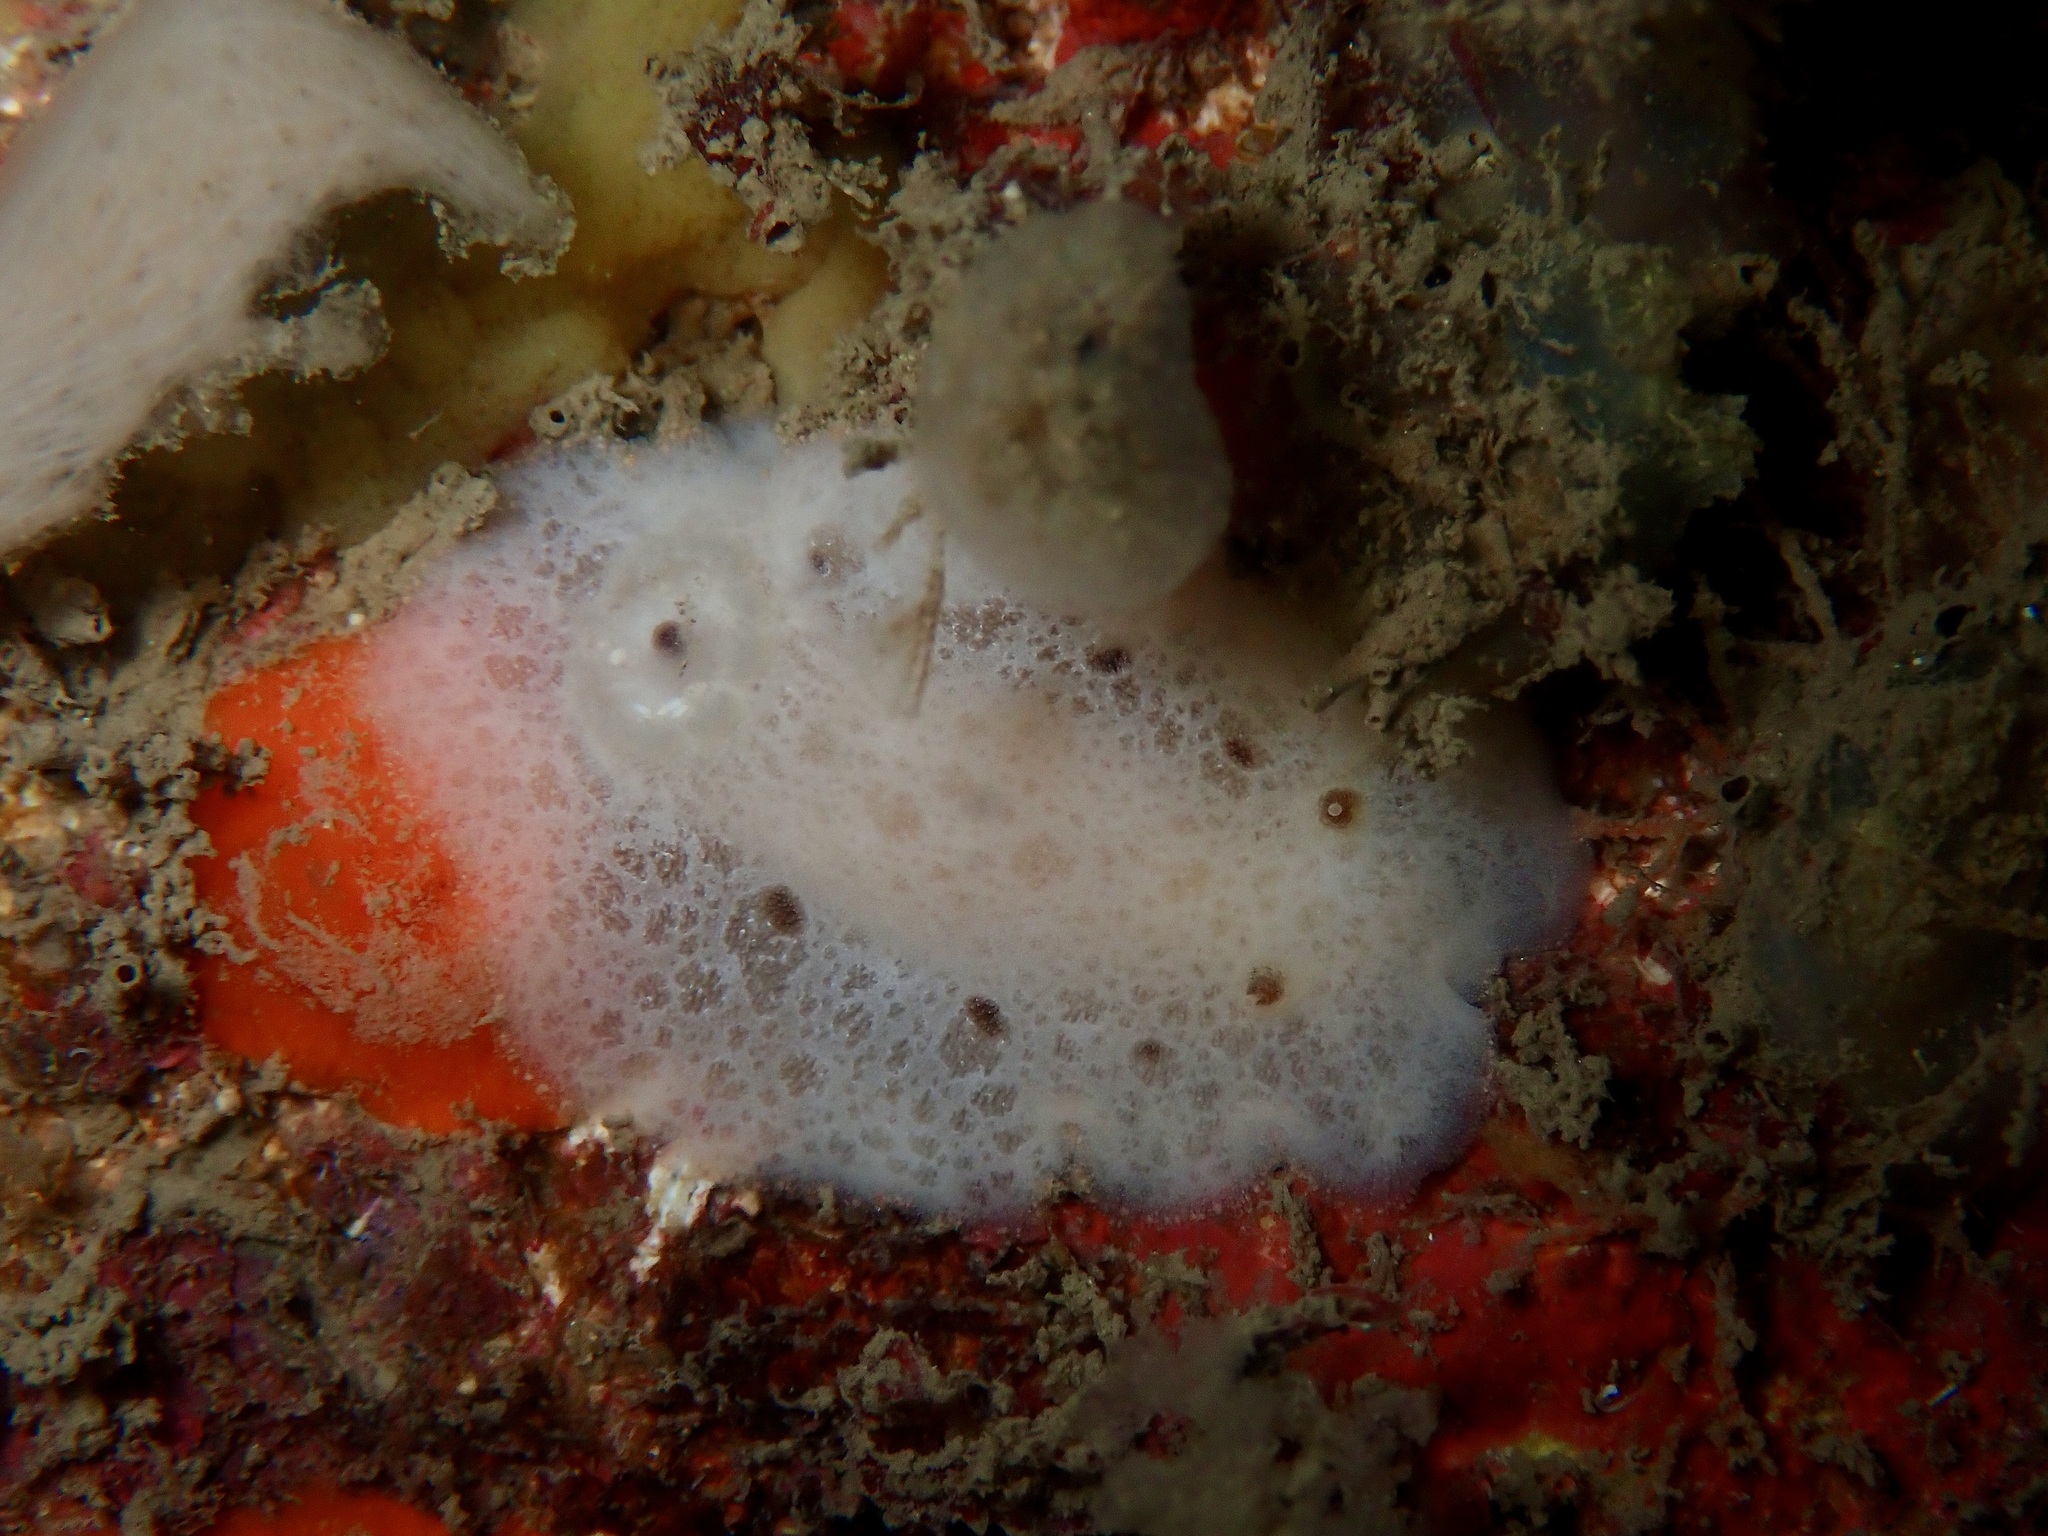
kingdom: Animalia
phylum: Mollusca
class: Gastropoda
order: Nudibranchia
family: Discodorididae
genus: Jorunna
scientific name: Jorunna tomentosa
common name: Grey sea slug
